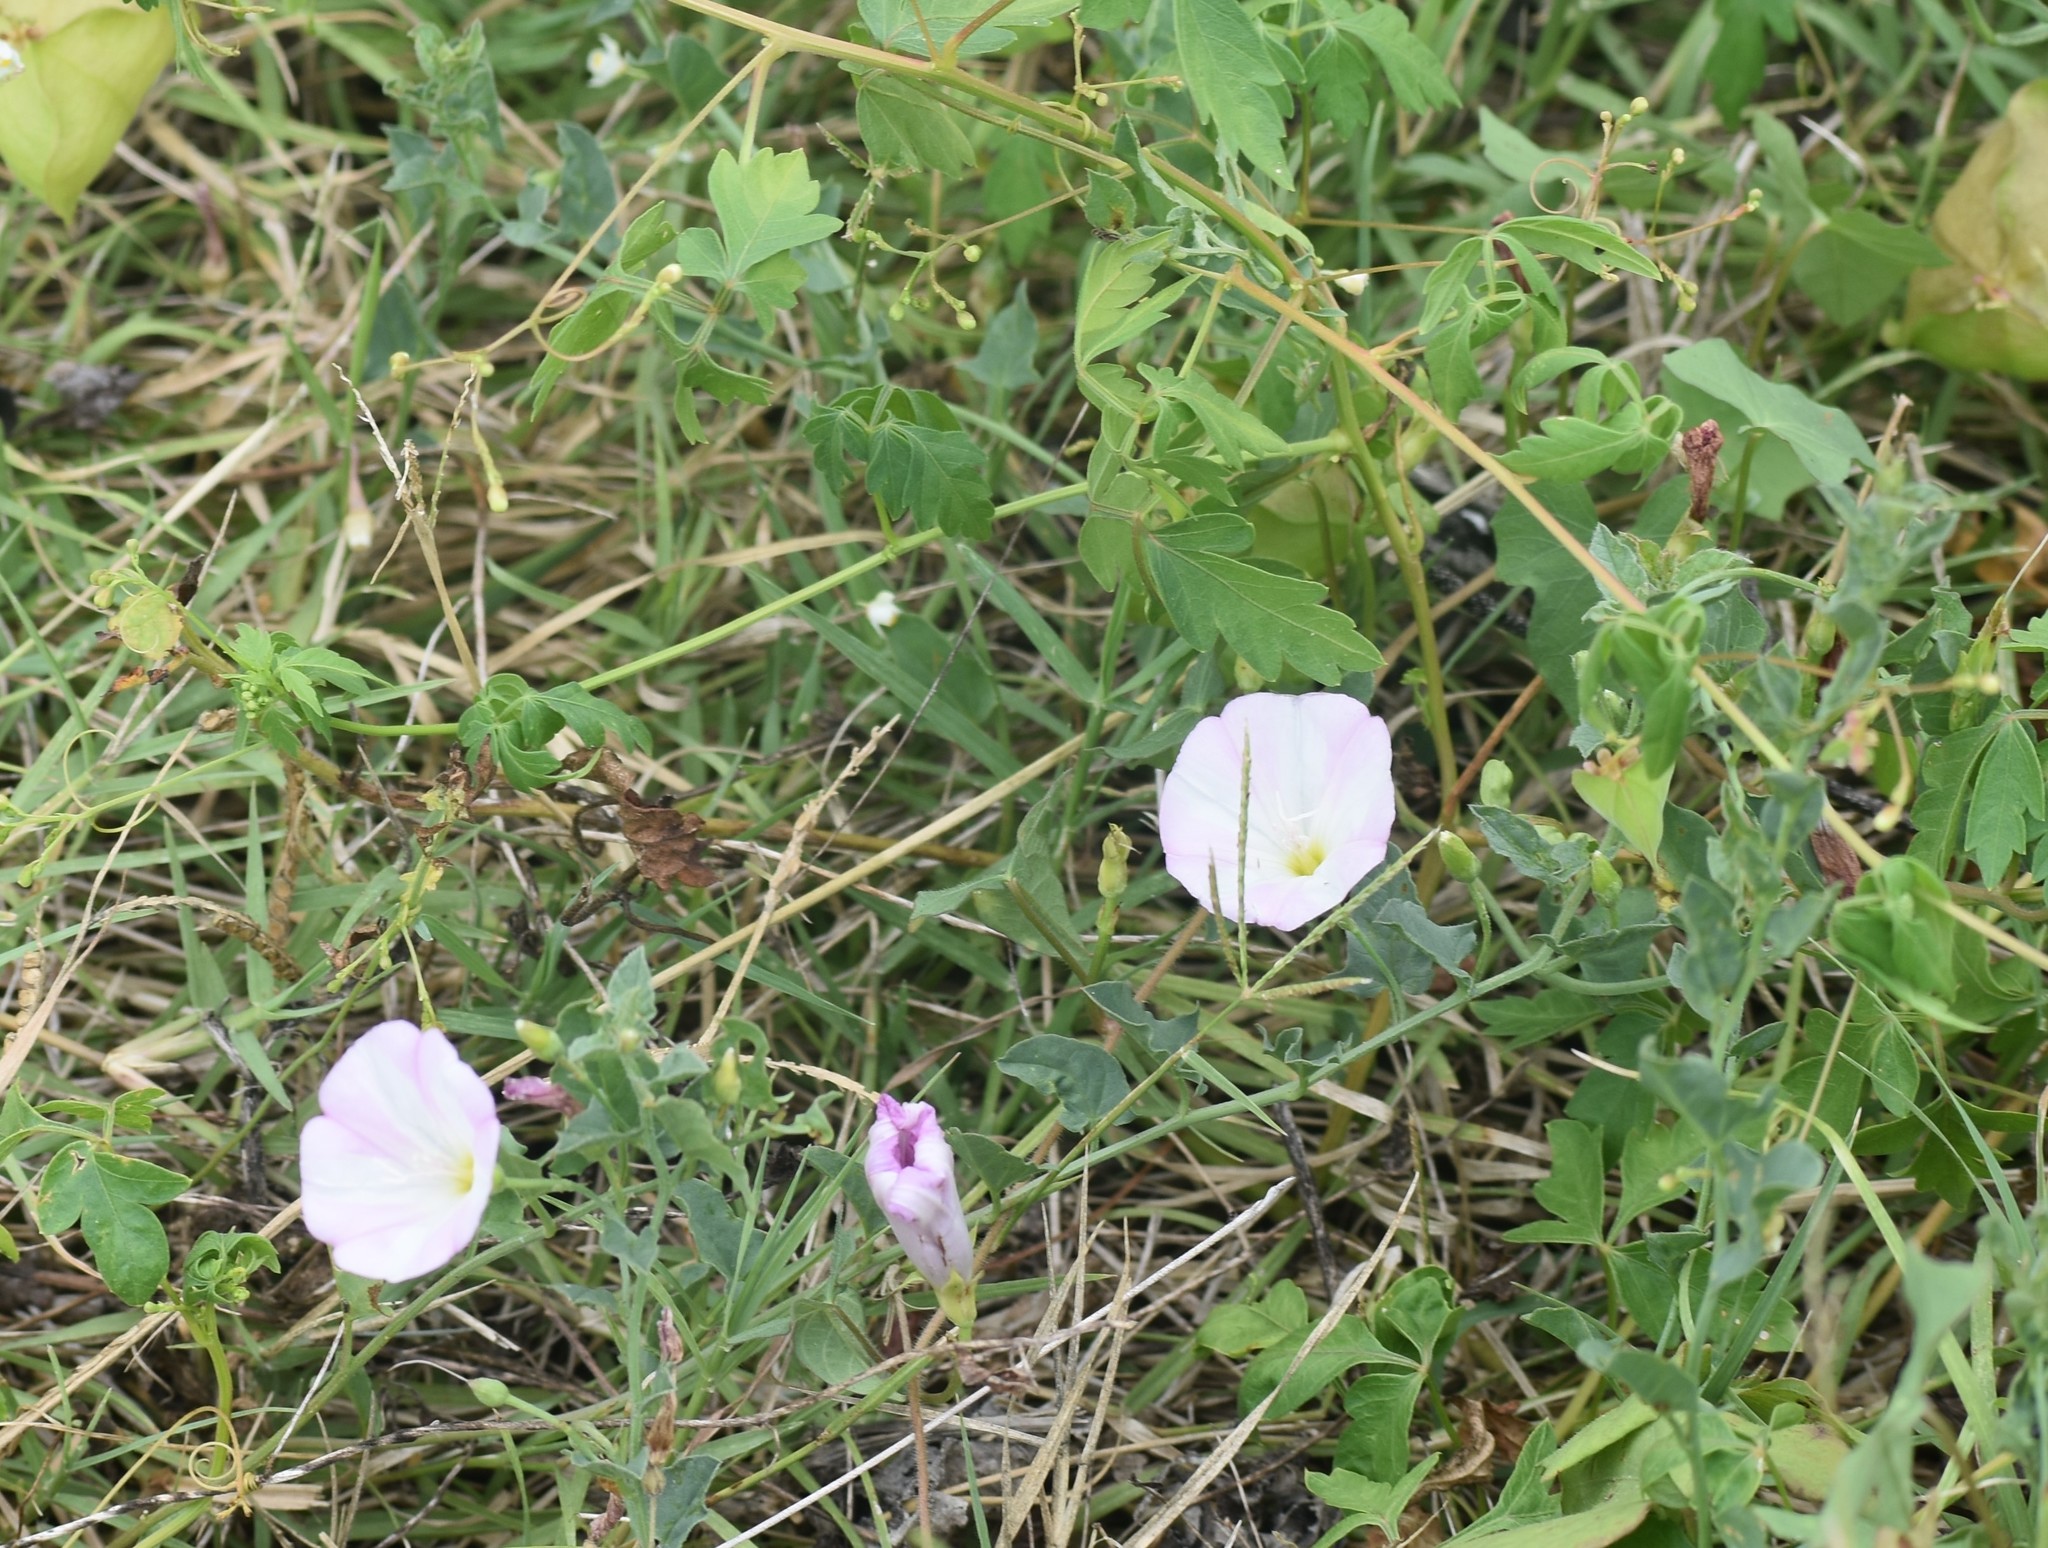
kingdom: Plantae
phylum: Tracheophyta
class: Magnoliopsida
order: Solanales
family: Convolvulaceae
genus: Convolvulus
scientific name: Convolvulus arvensis
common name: Field bindweed
